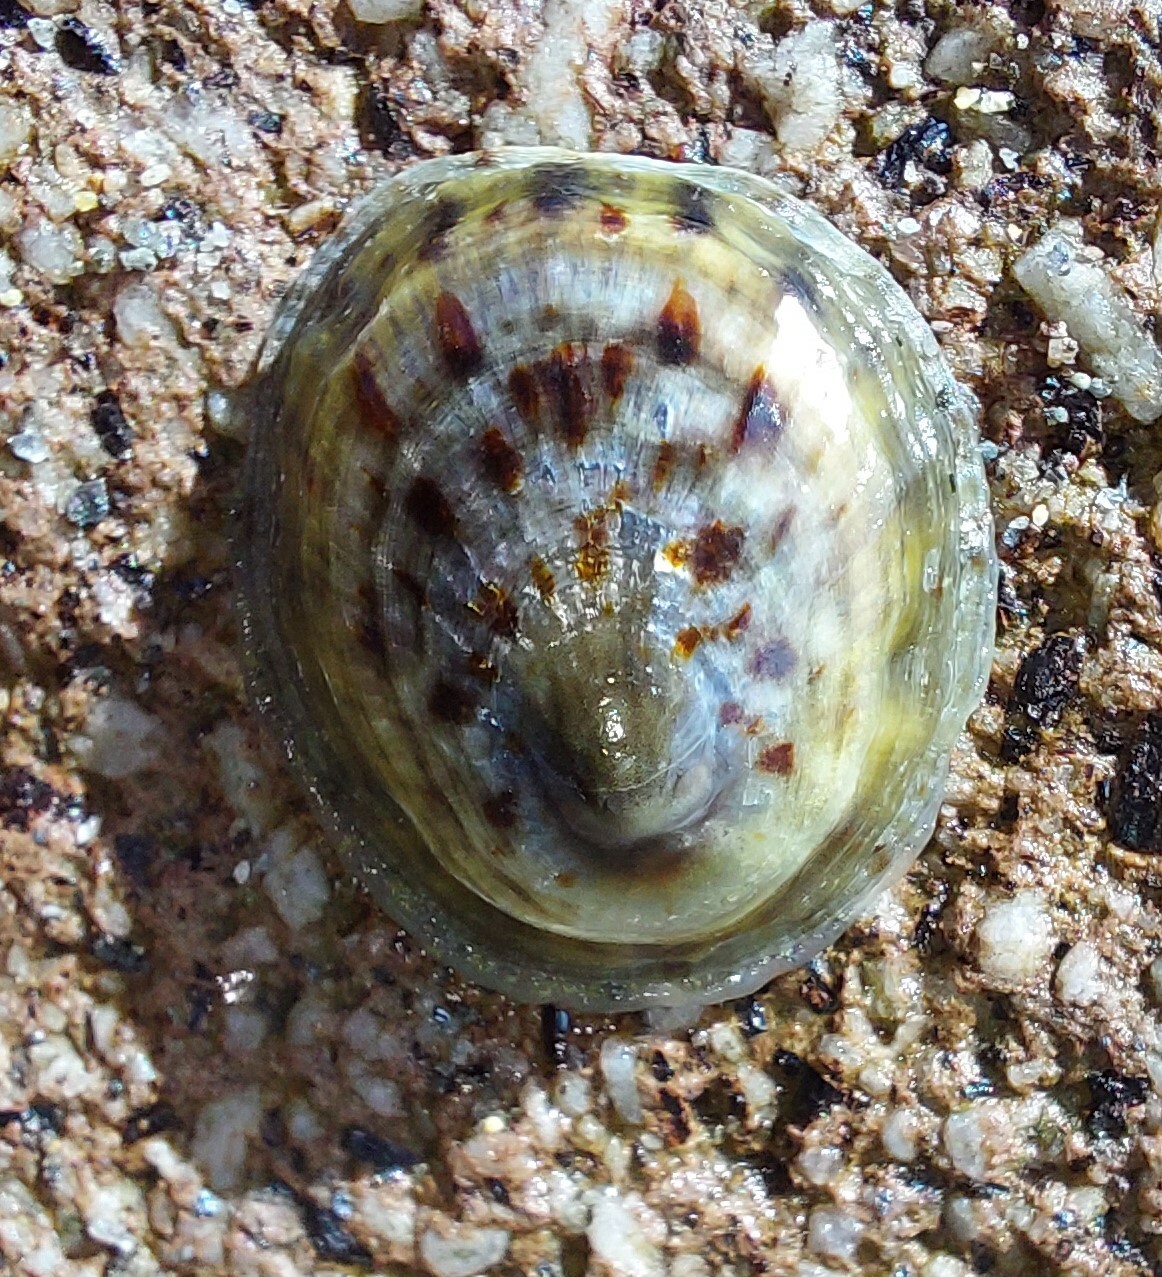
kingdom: Animalia
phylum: Mollusca
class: Gastropoda
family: Nacellidae
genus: Cellana
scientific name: Cellana radians
